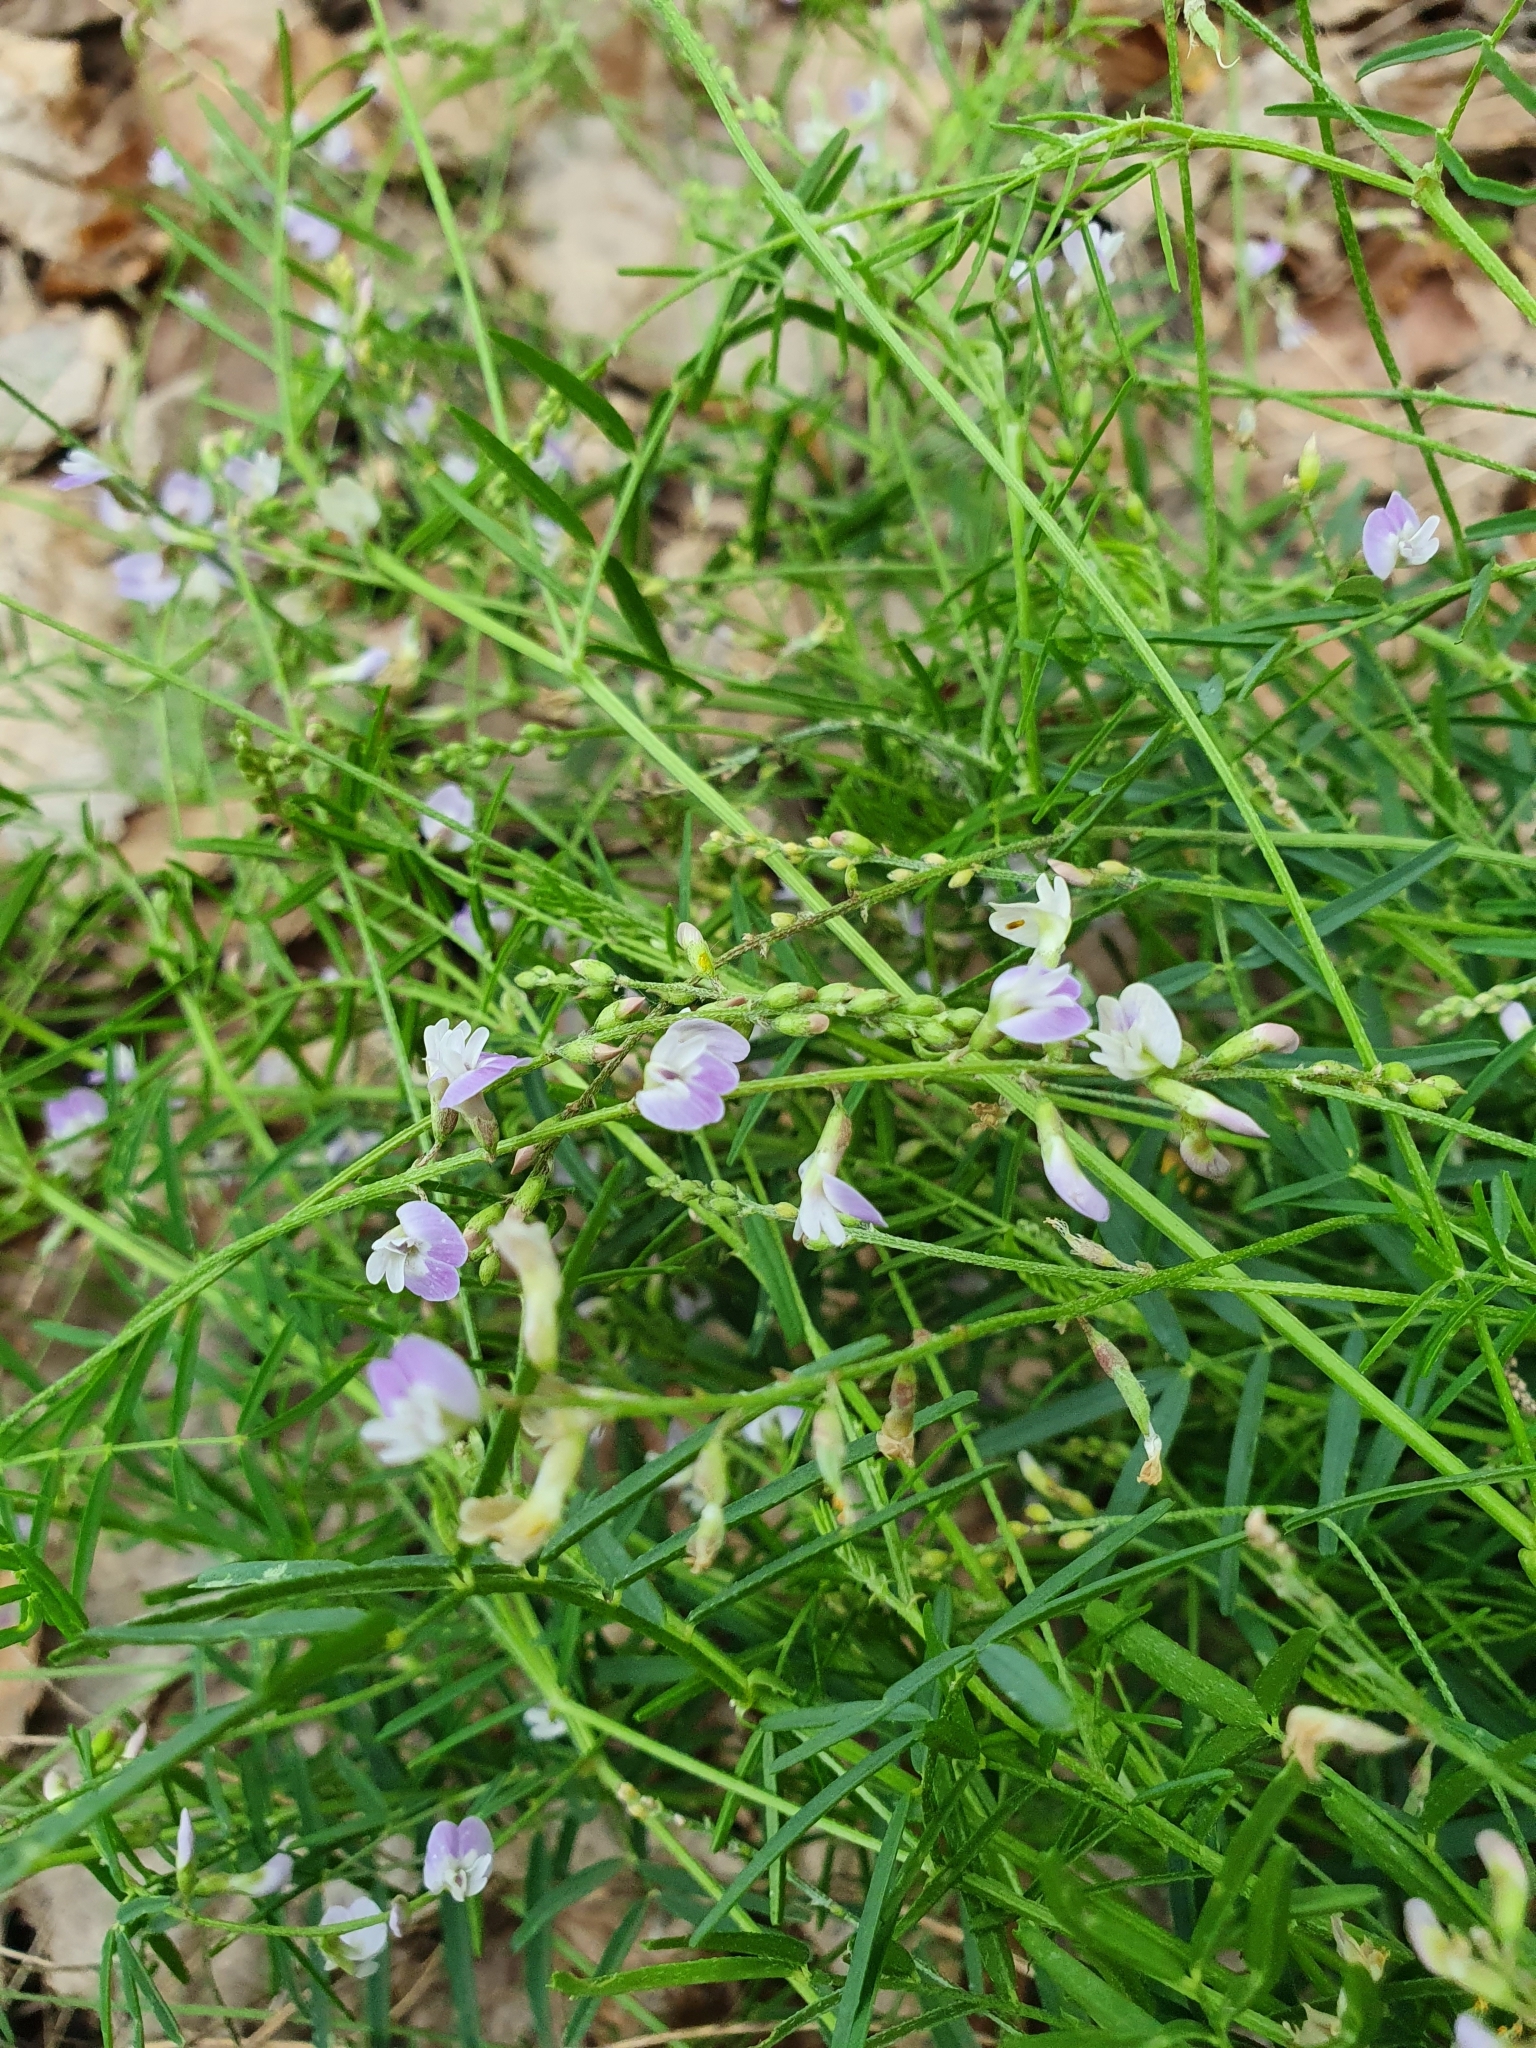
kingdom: Plantae
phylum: Tracheophyta
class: Magnoliopsida
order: Fabales
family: Fabaceae
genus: Astragalus
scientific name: Astragalus austriacus
